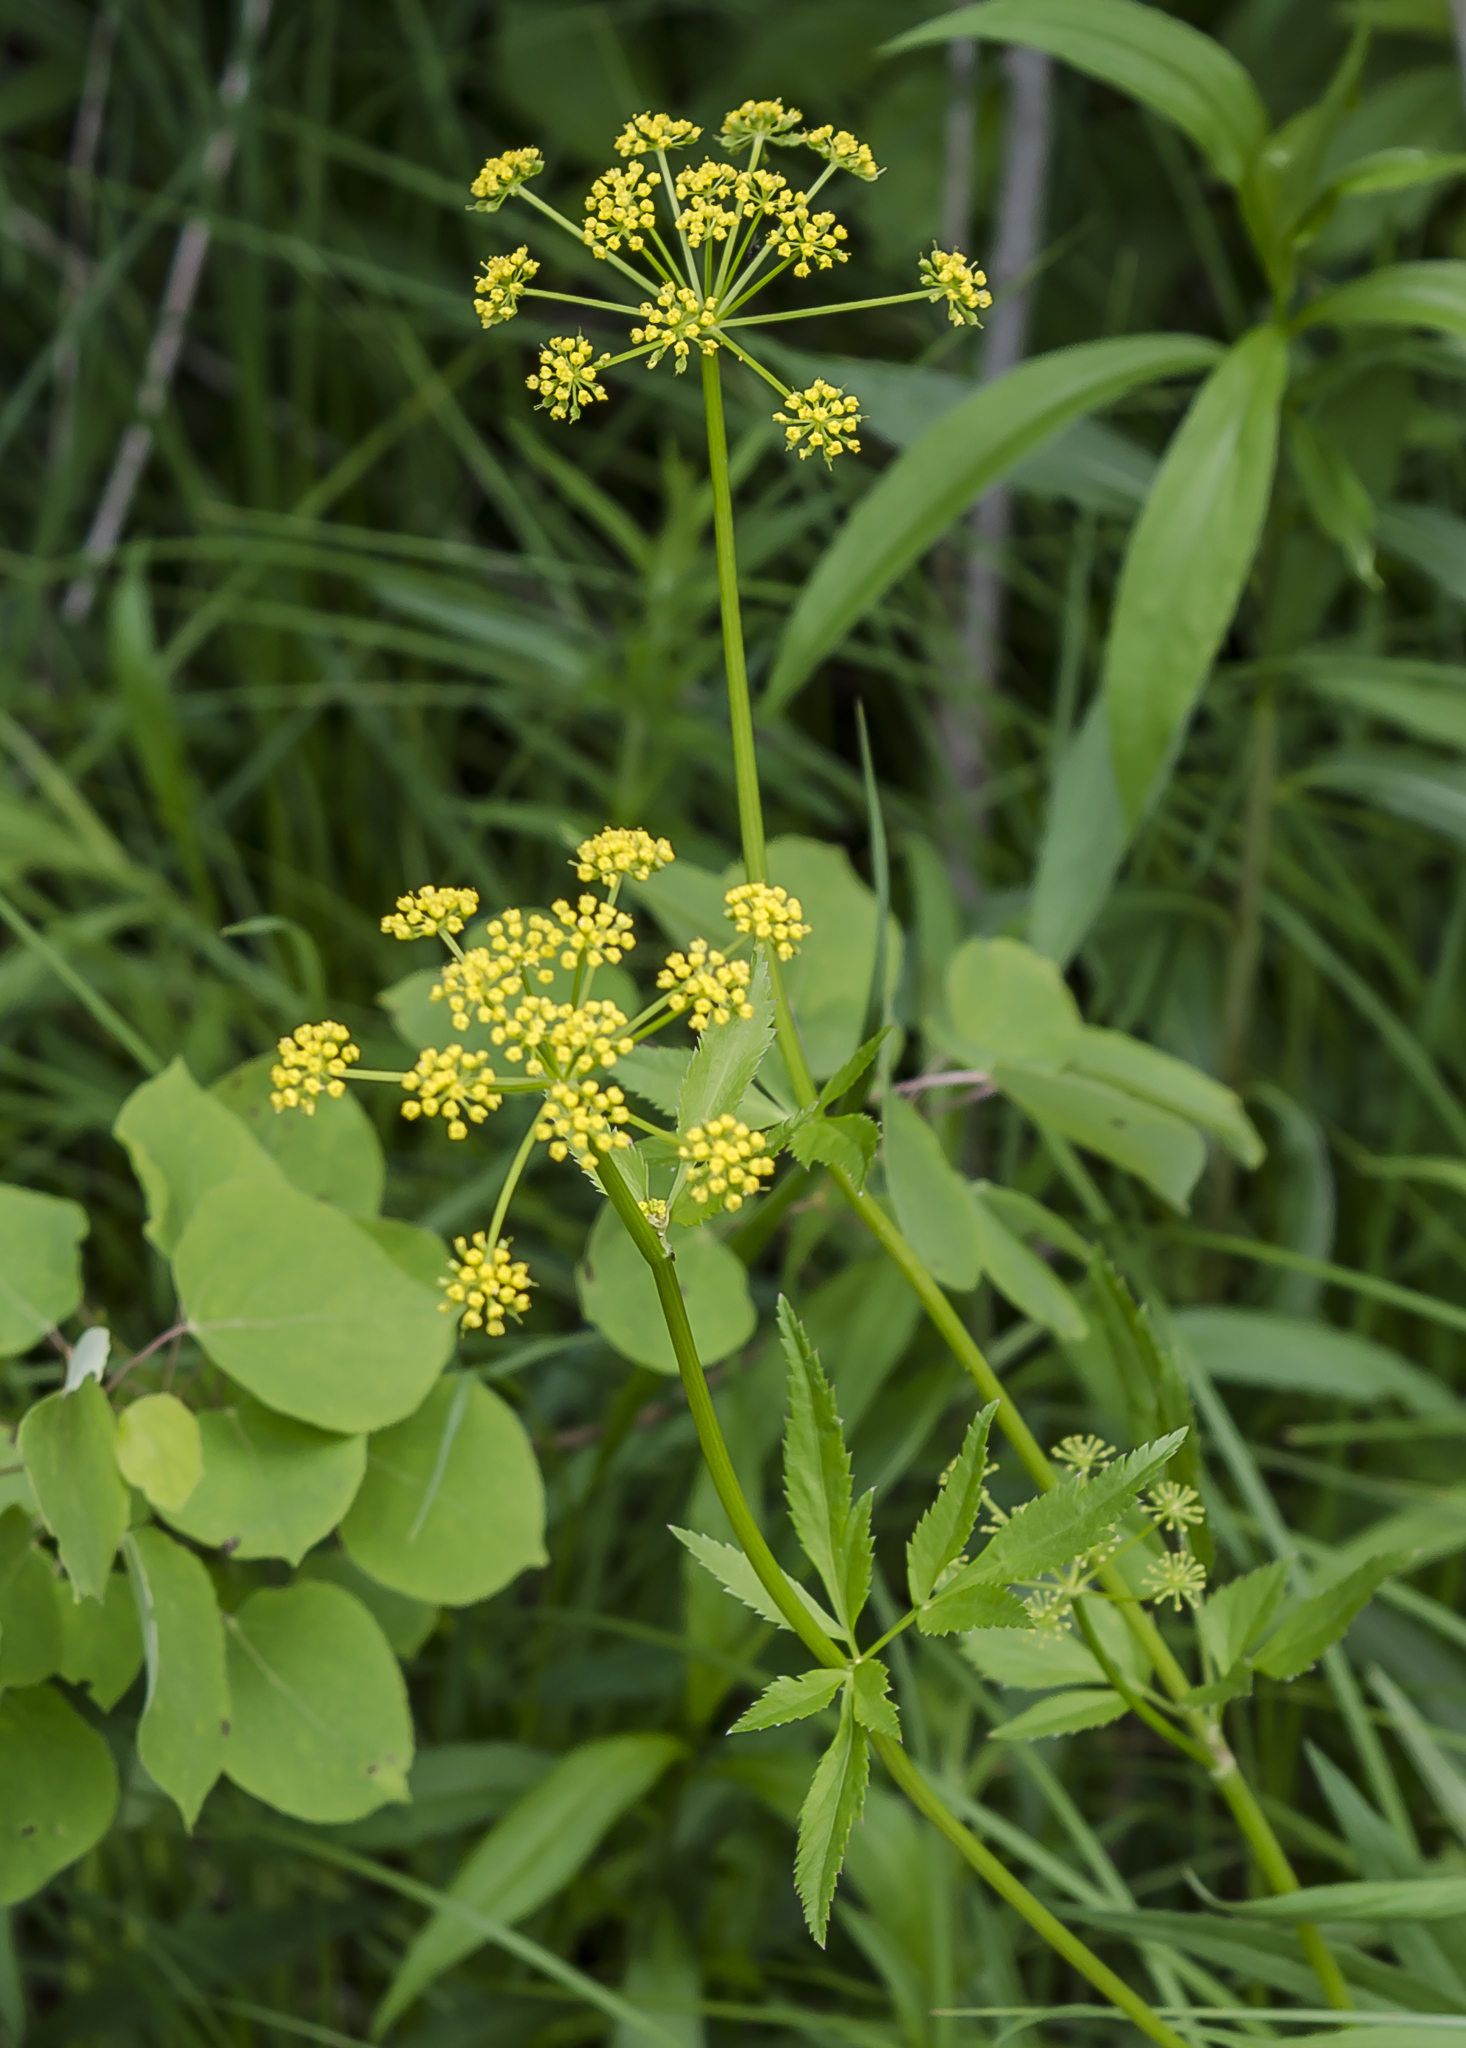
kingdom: Plantae
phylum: Tracheophyta
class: Magnoliopsida
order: Apiales
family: Apiaceae
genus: Zizia
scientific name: Zizia aurea
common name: Golden alexanders
